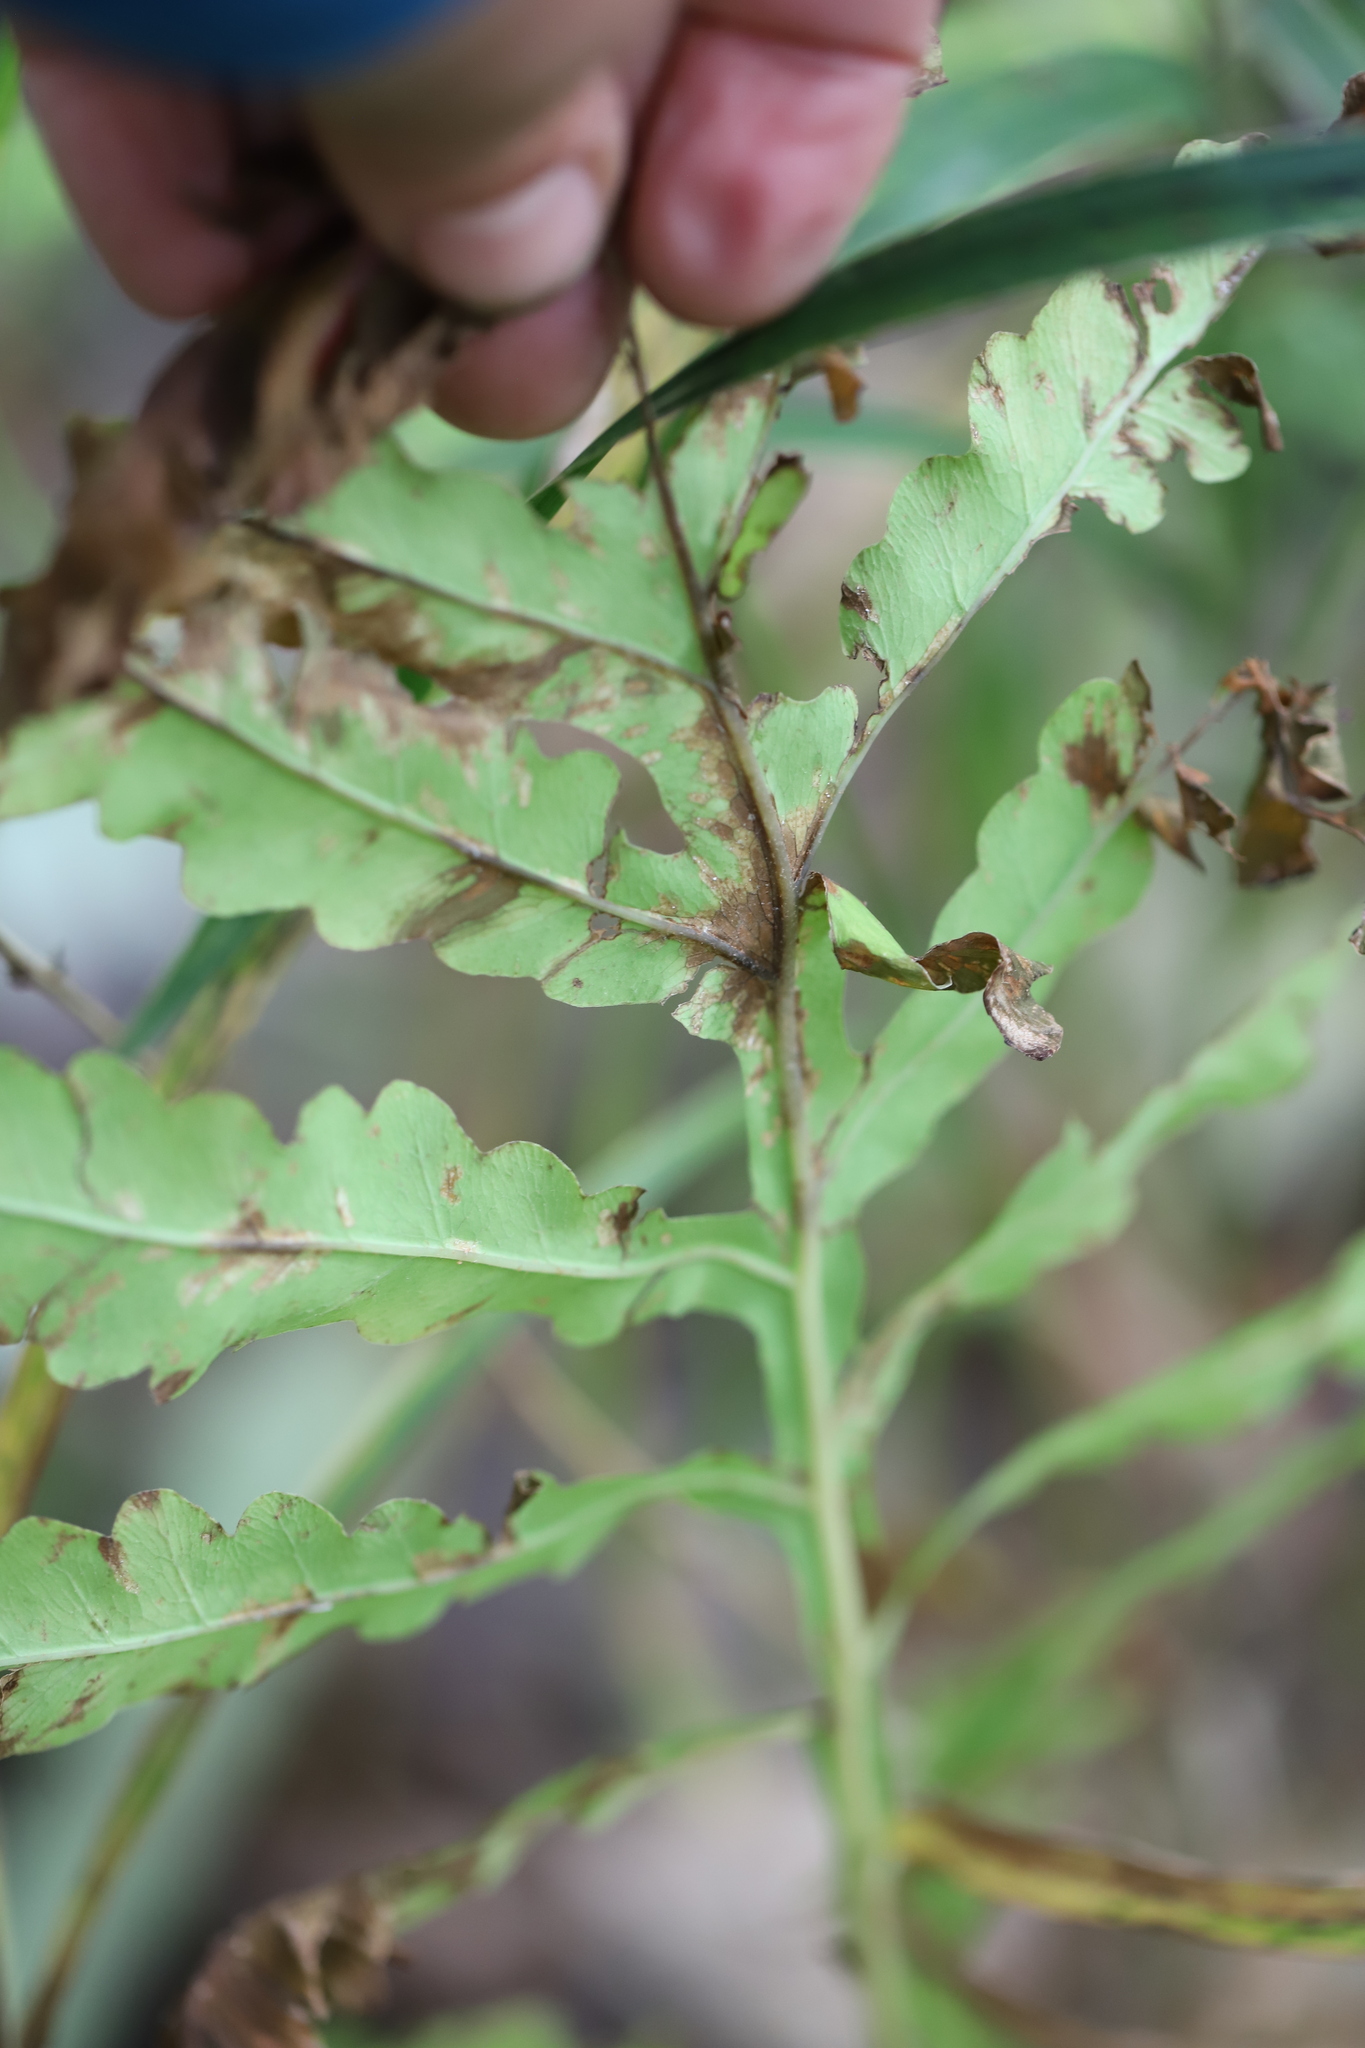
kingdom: Plantae
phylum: Tracheophyta
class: Polypodiopsida
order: Polypodiales
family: Onocleaceae
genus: Onoclea
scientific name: Onoclea sensibilis
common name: Sensitive fern
